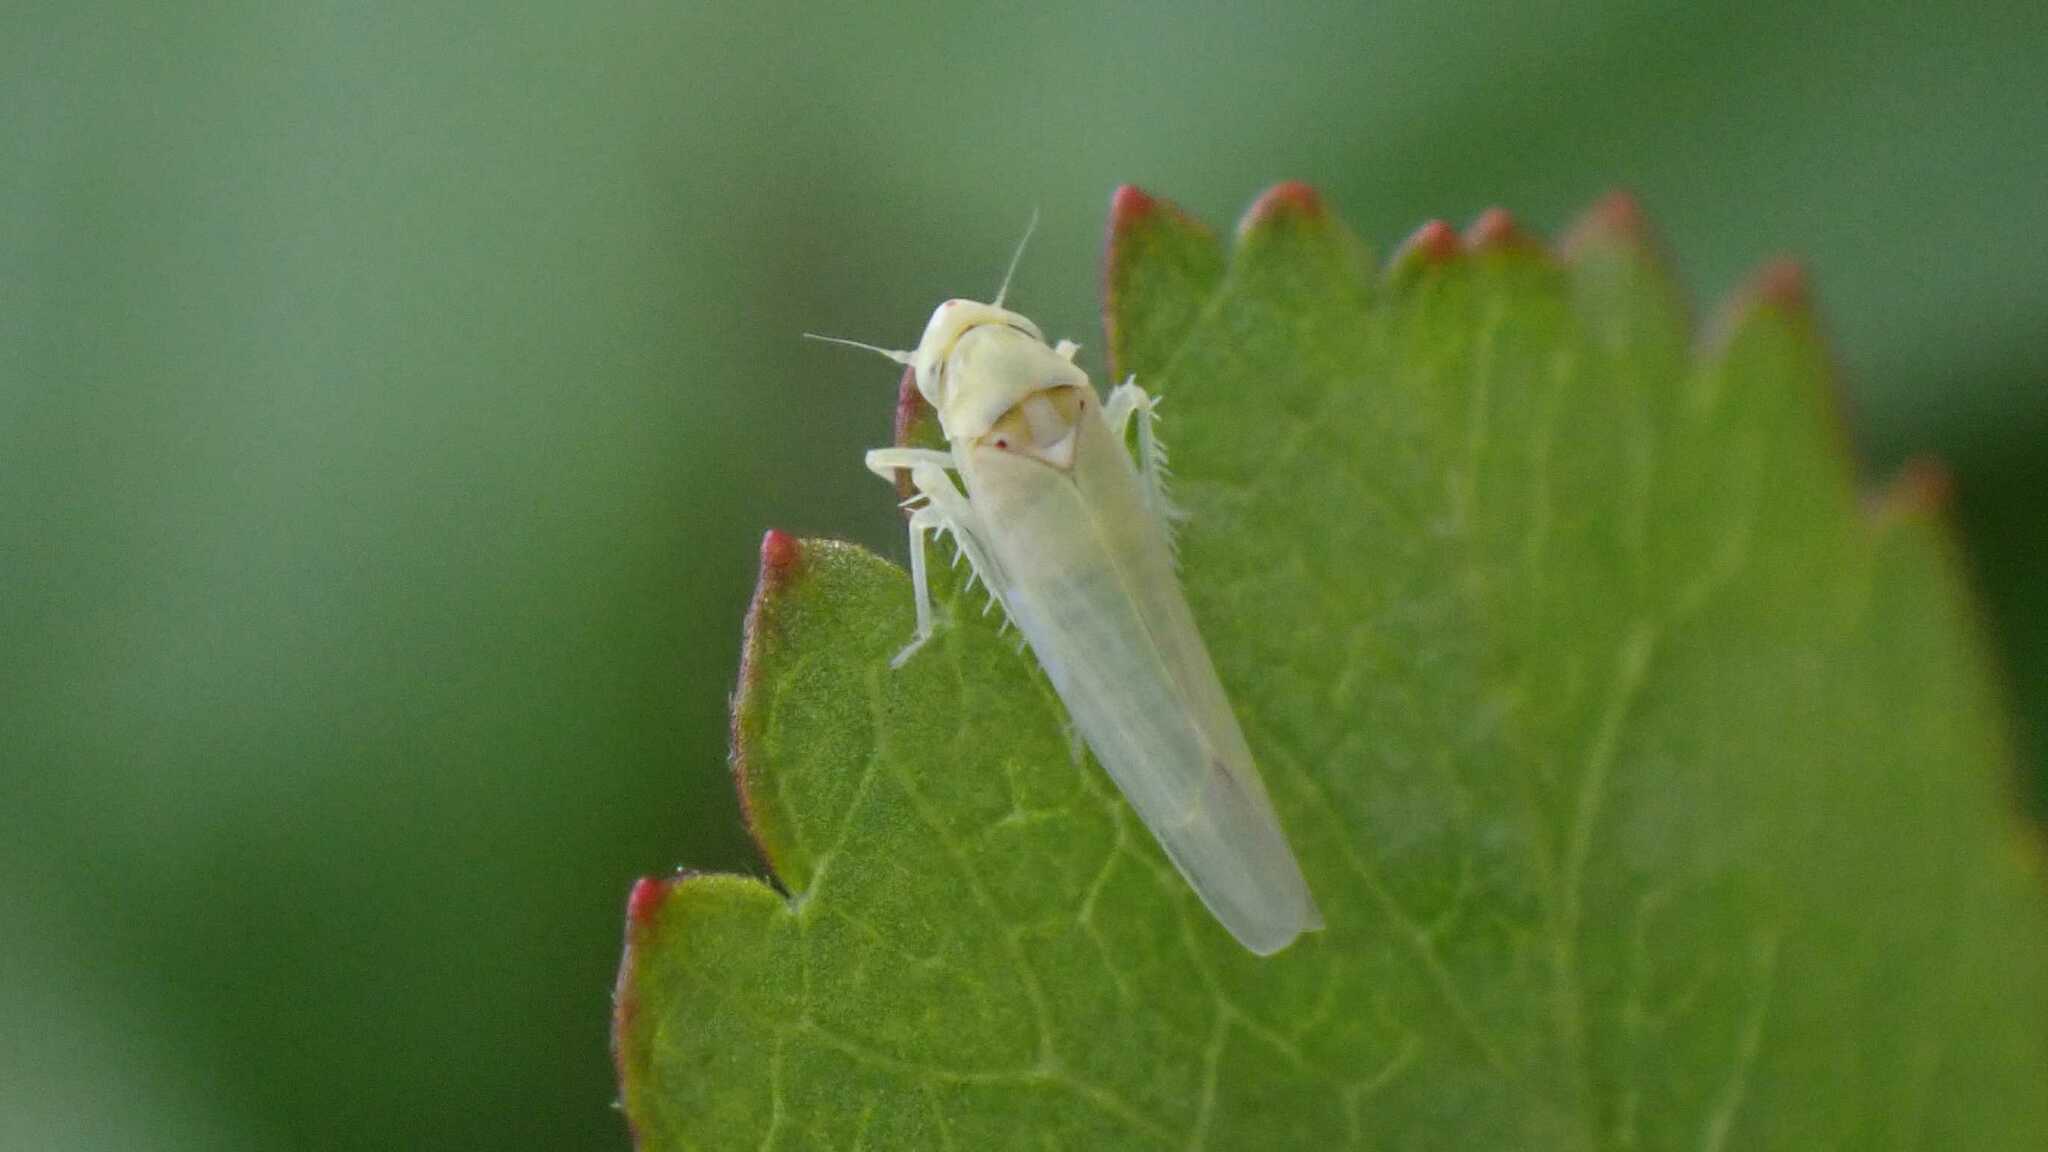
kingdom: Animalia
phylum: Arthropoda
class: Insecta
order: Hemiptera
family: Cicadellidae
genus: Zygina
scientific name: Zygina nivea
